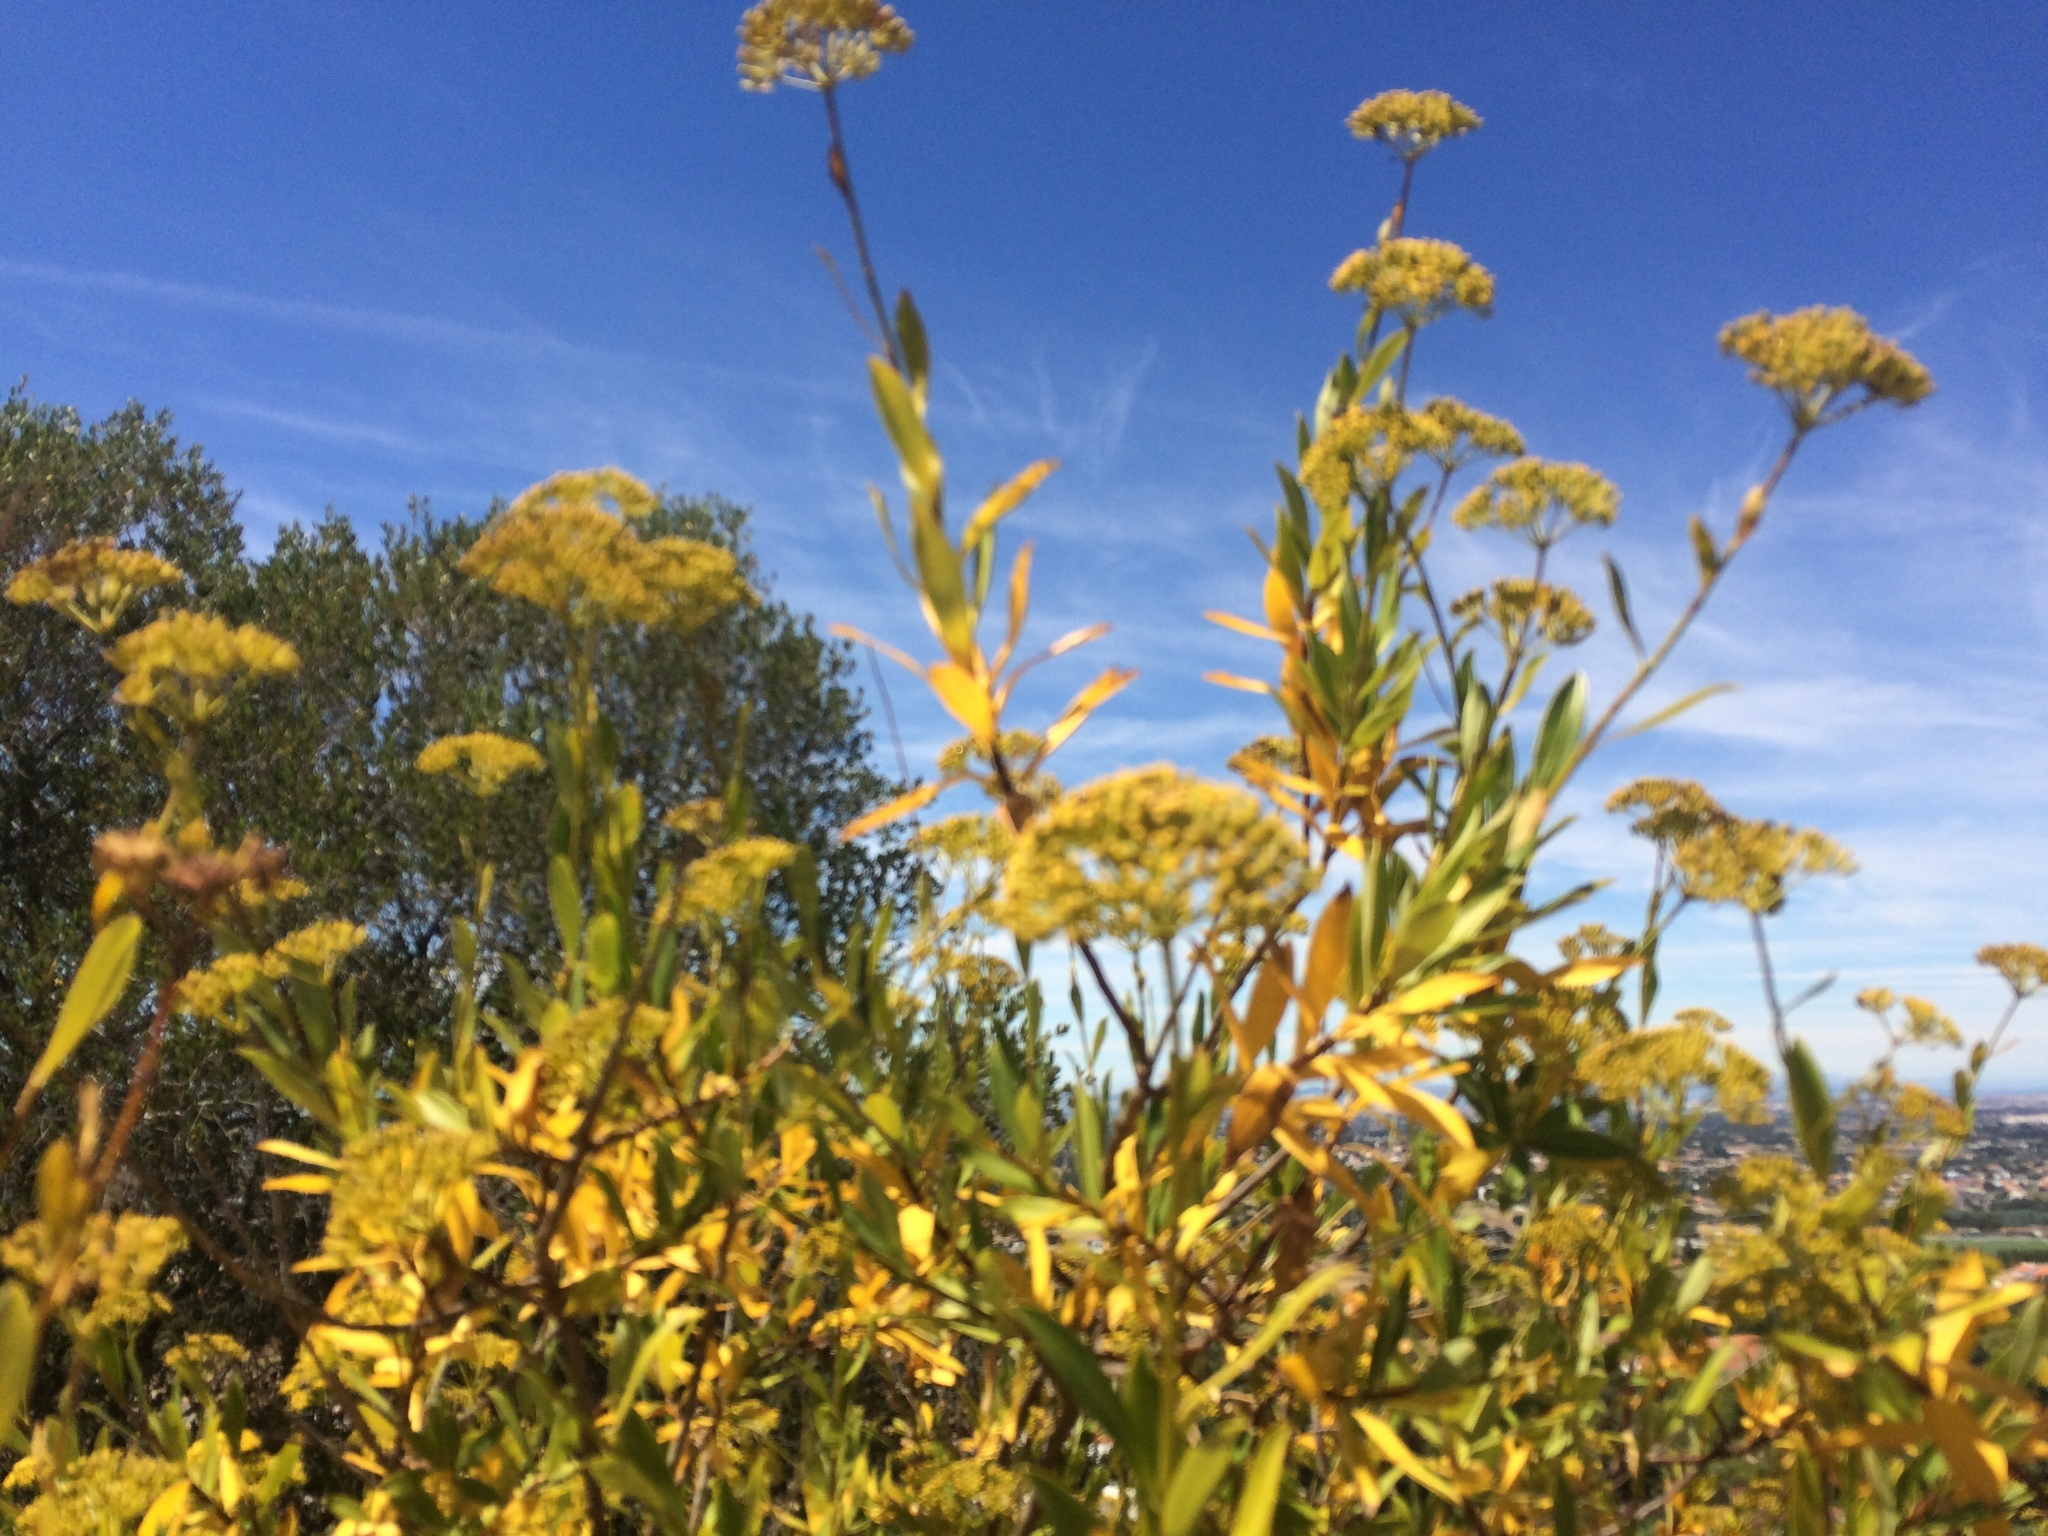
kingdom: Plantae
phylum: Tracheophyta
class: Magnoliopsida
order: Apiales
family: Apiaceae
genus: Bupleurum
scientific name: Bupleurum fruticosum
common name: Shrubby hare's-ear
